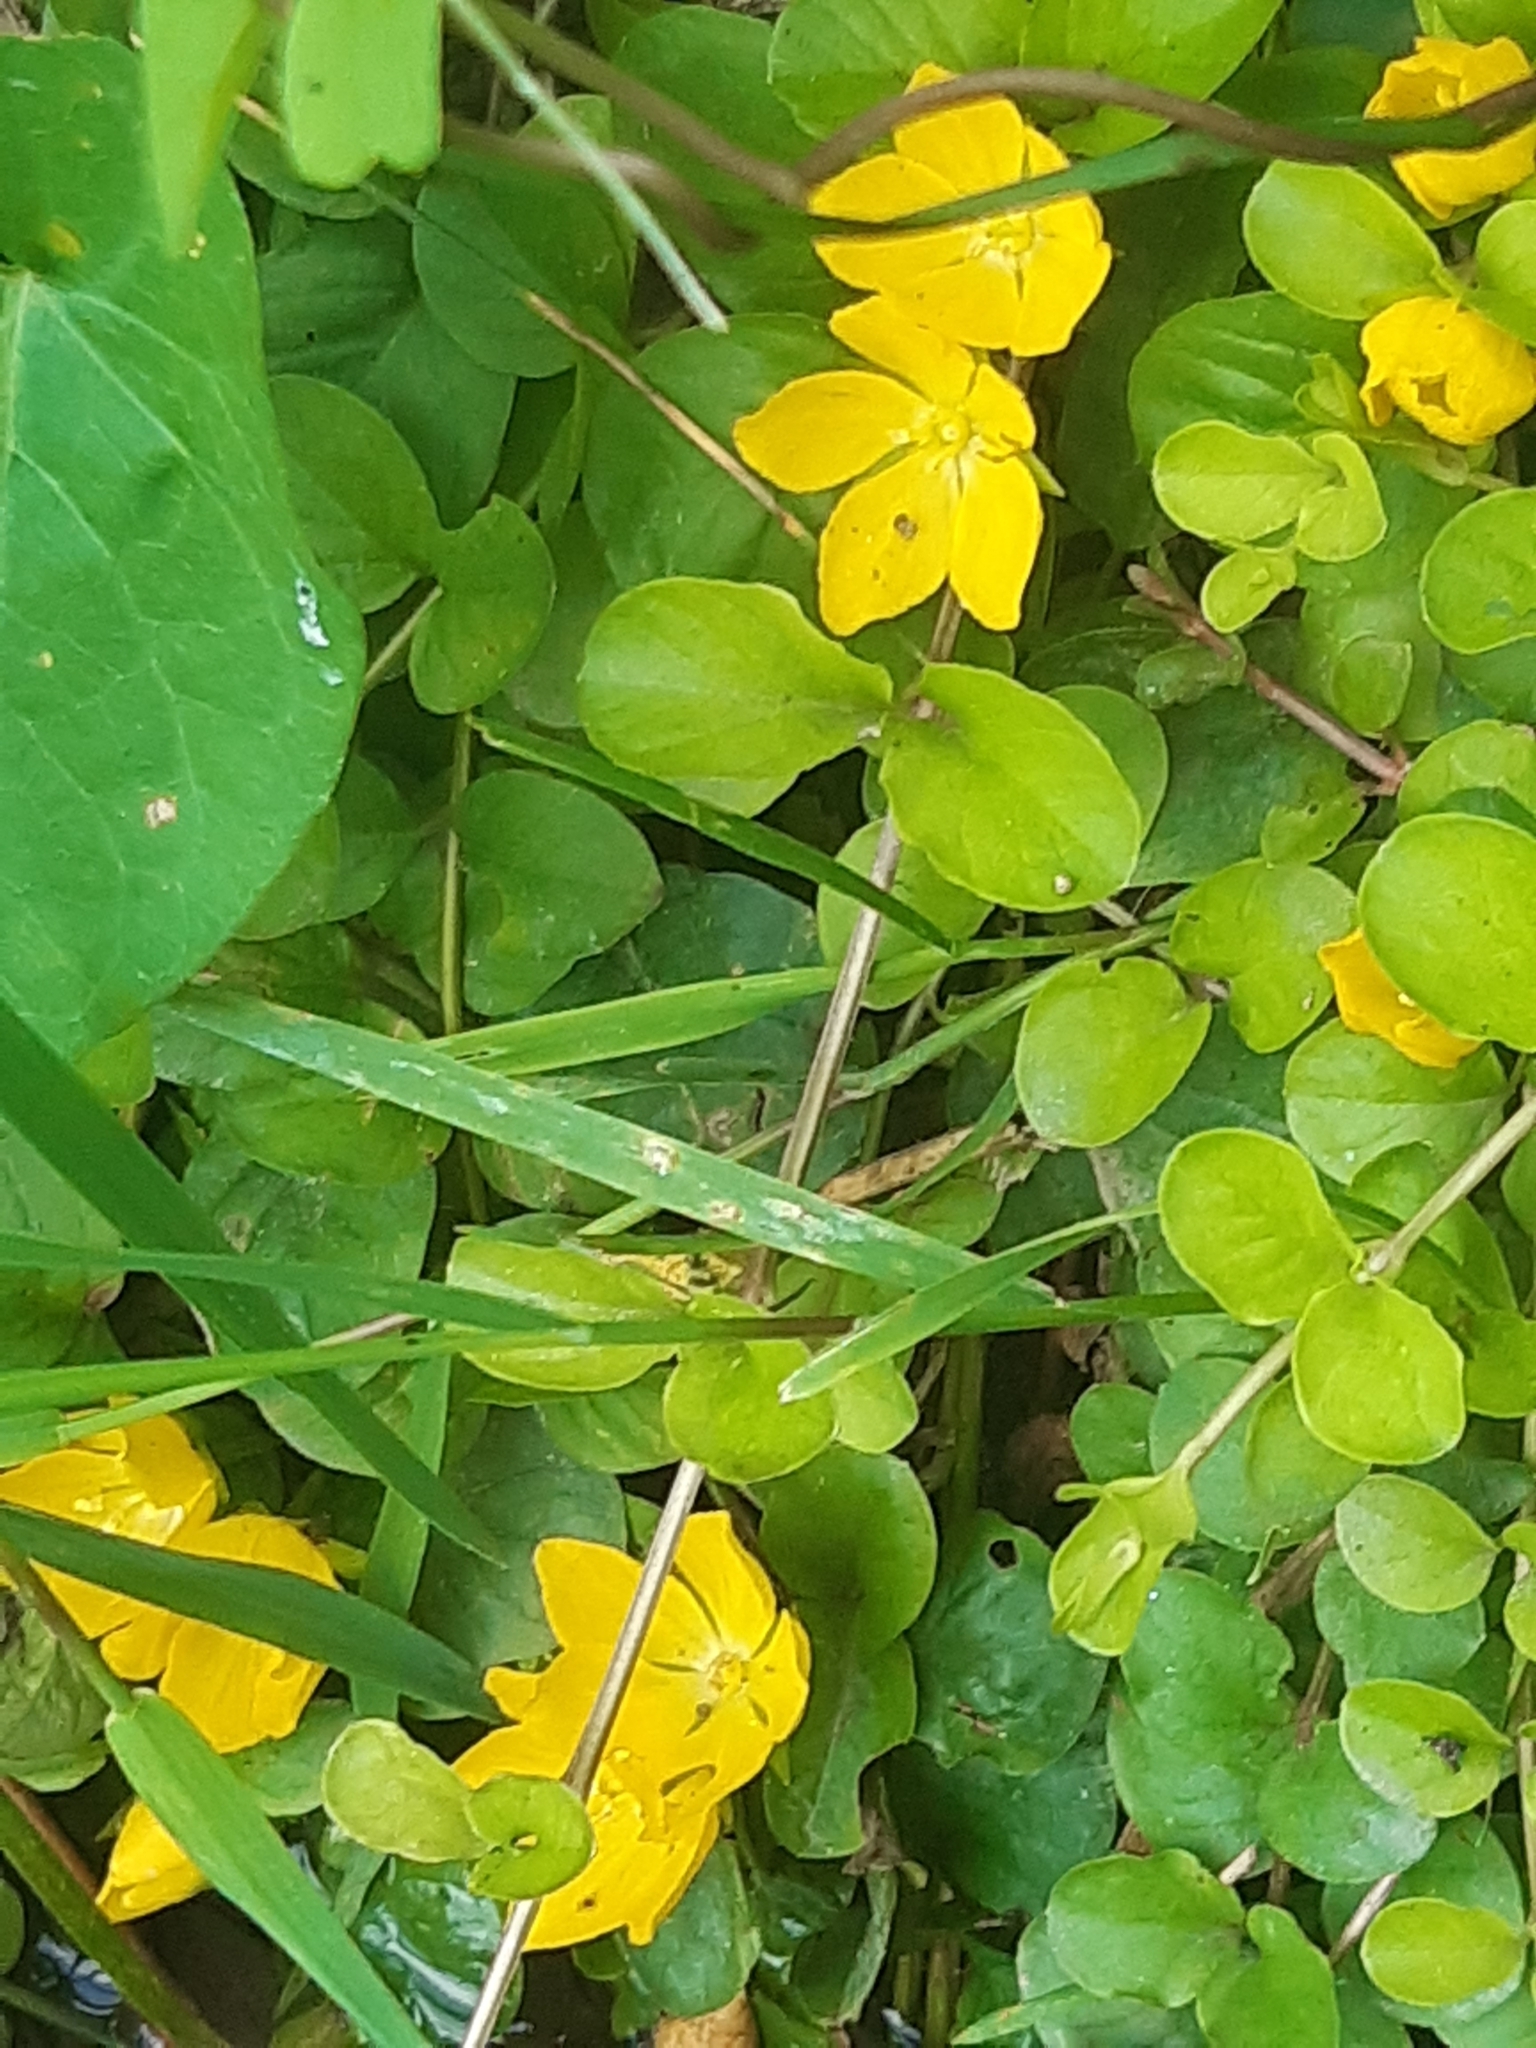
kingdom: Plantae
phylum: Tracheophyta
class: Magnoliopsida
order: Ericales
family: Primulaceae
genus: Lysimachia
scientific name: Lysimachia nummularia
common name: Moneywort
